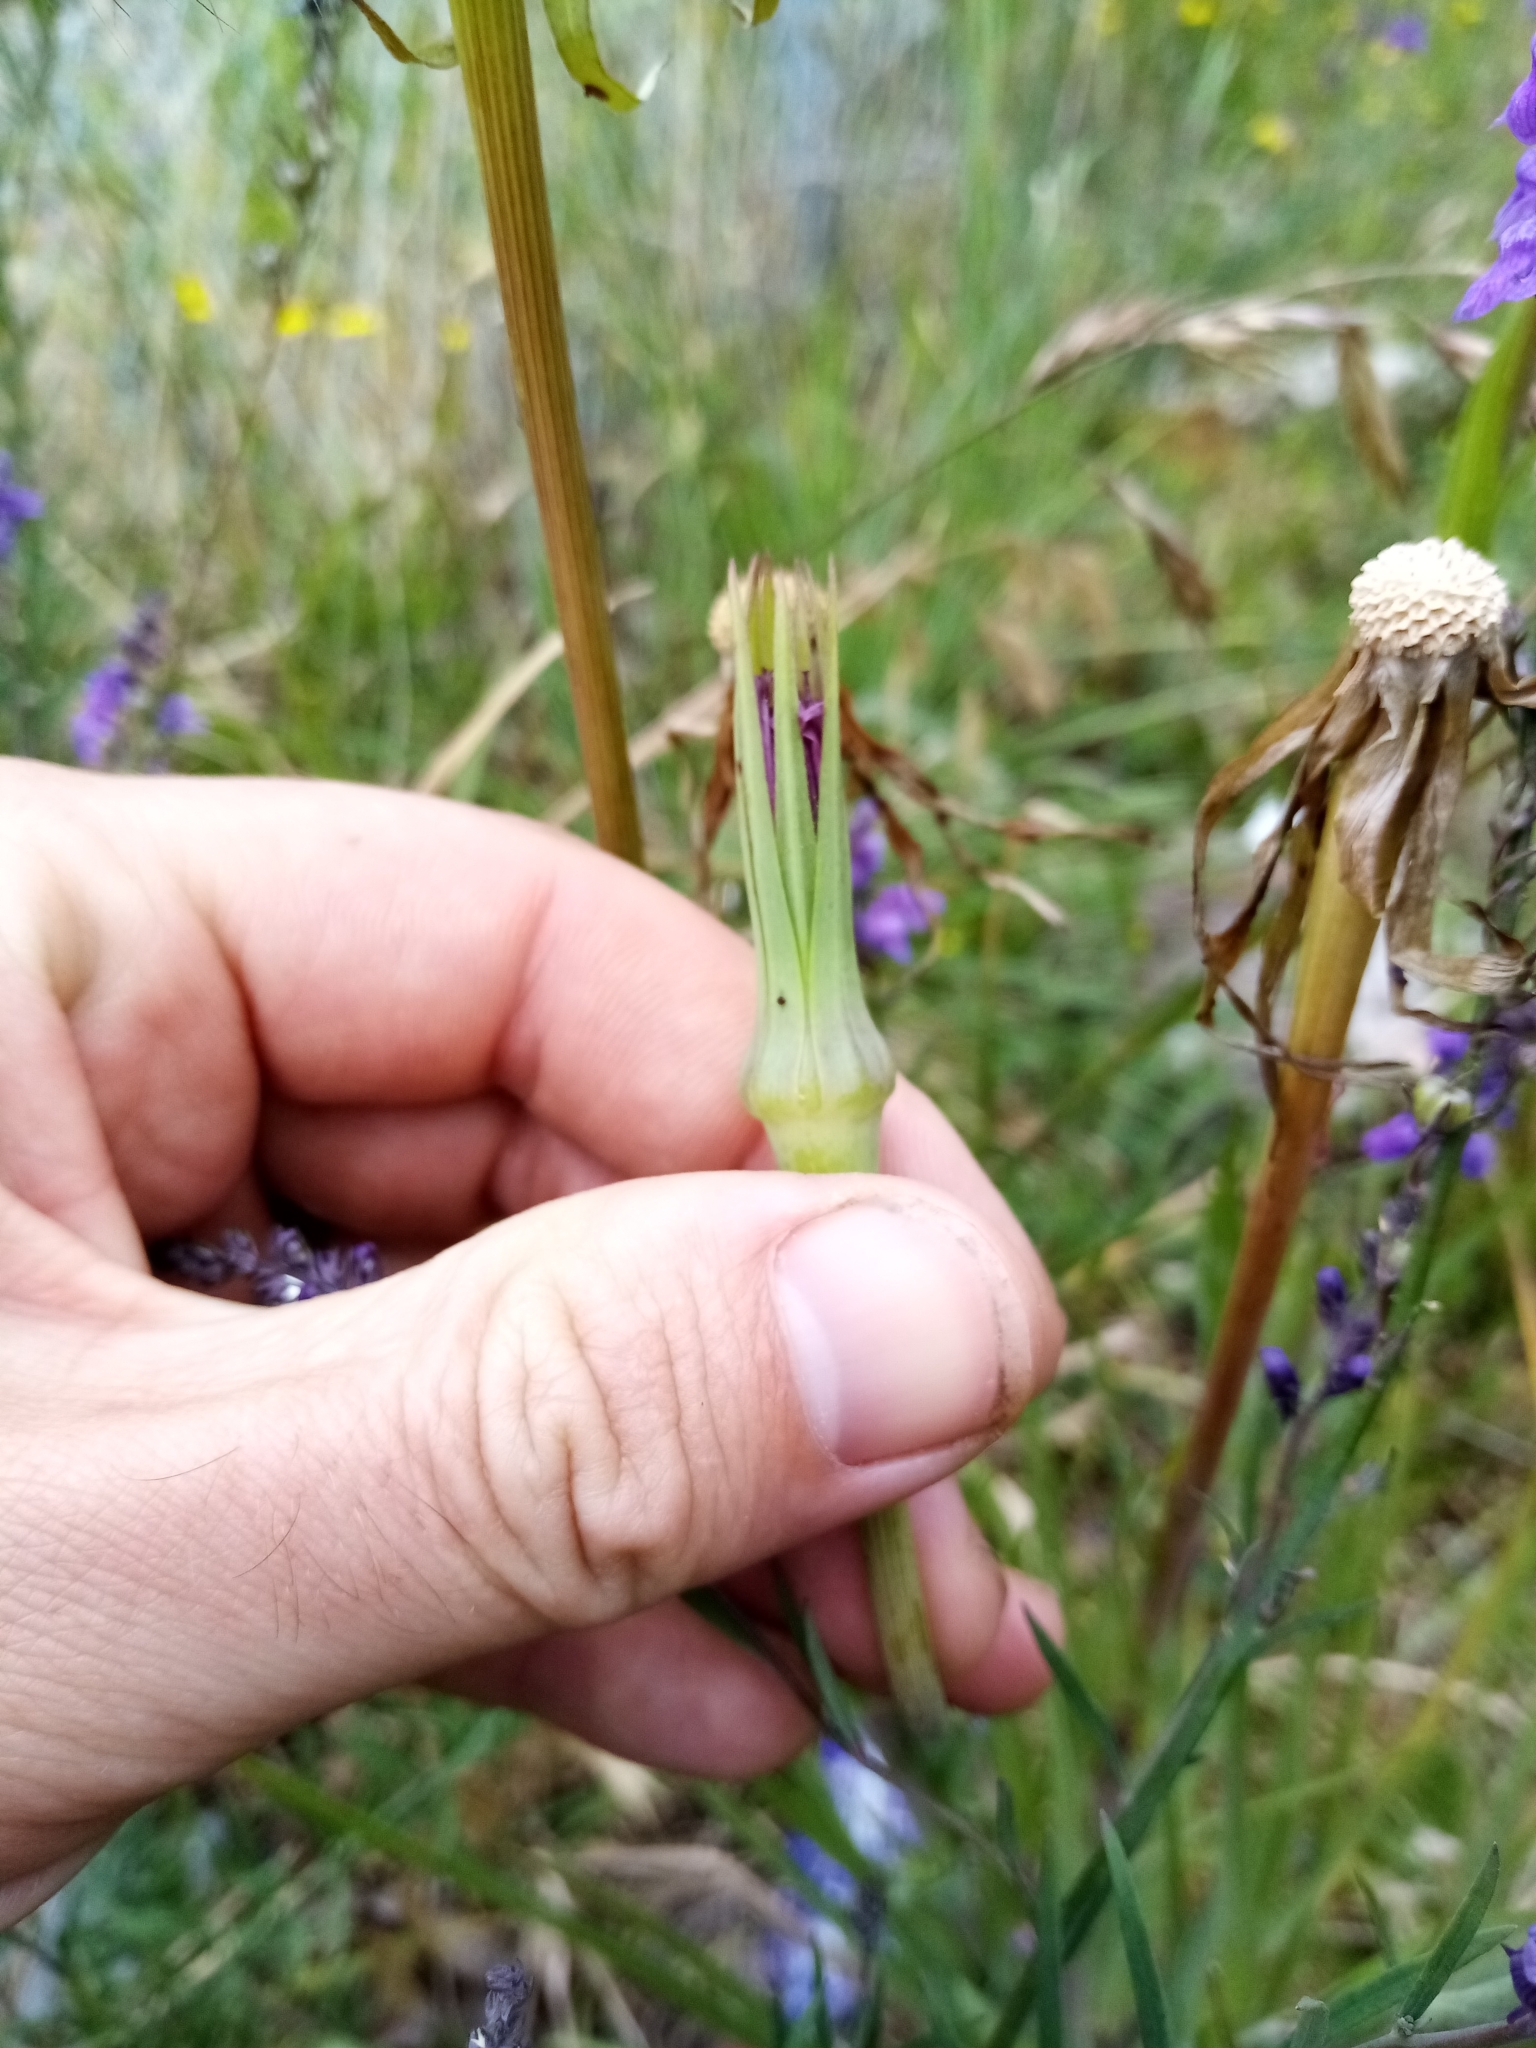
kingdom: Plantae
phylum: Tracheophyta
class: Magnoliopsida
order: Asterales
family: Asteraceae
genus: Tragopogon
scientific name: Tragopogon porrifolius
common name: Salsify
